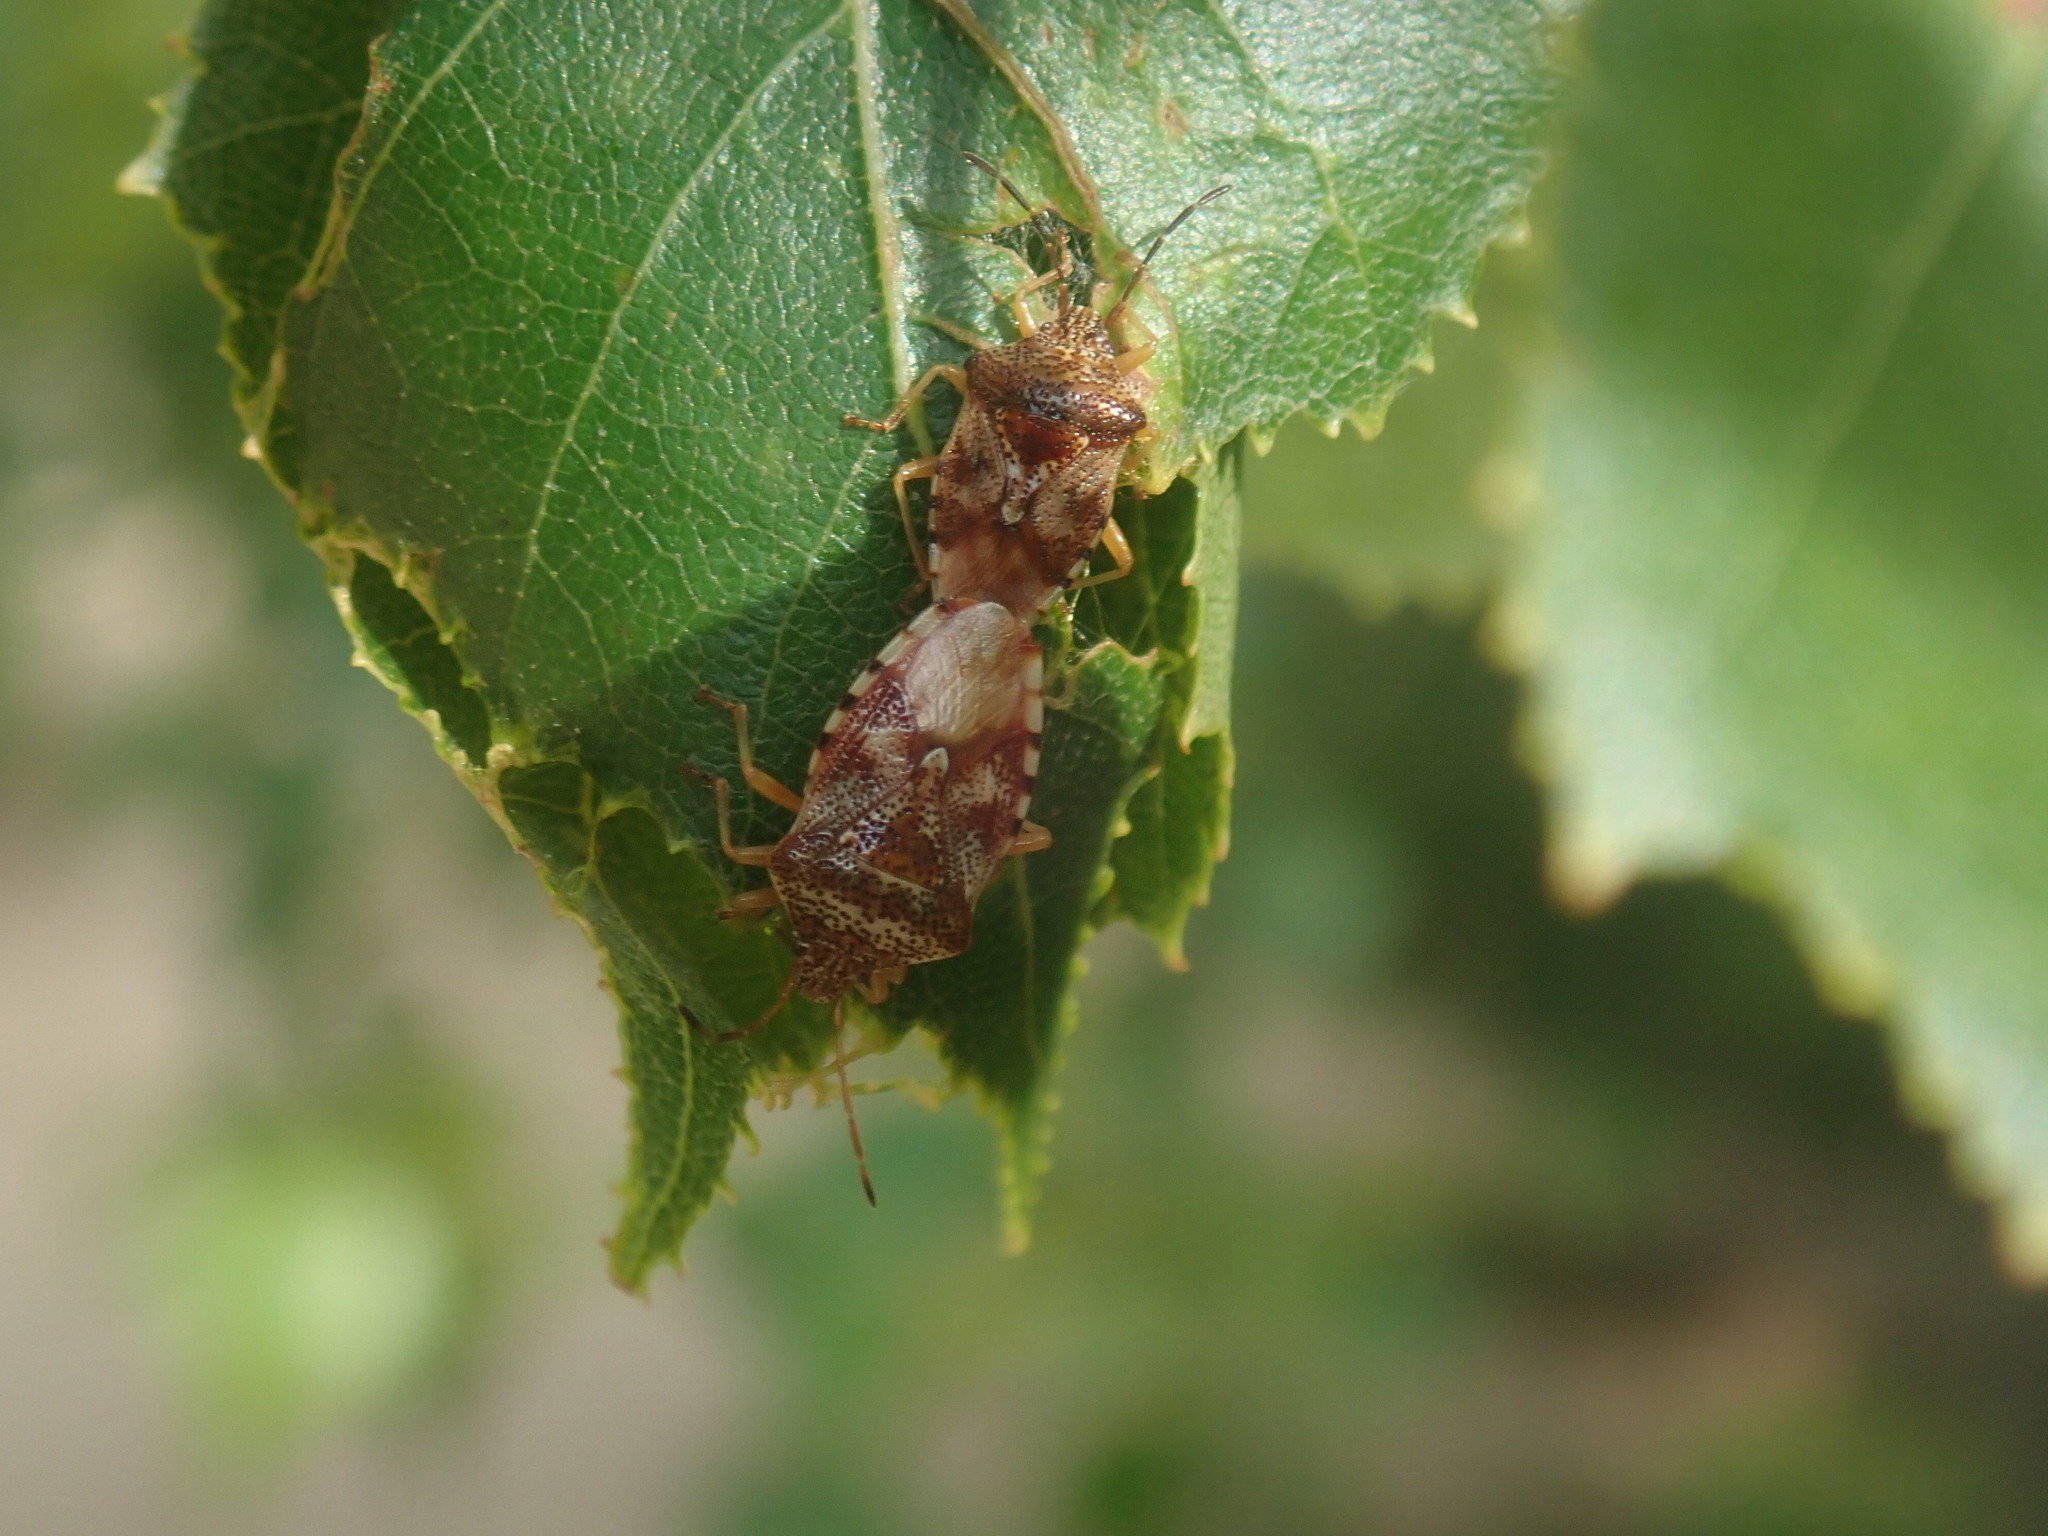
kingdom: Animalia
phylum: Arthropoda
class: Insecta
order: Hemiptera
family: Acanthosomatidae
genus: Elasmucha
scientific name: Elasmucha lateralis
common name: Shield bug
